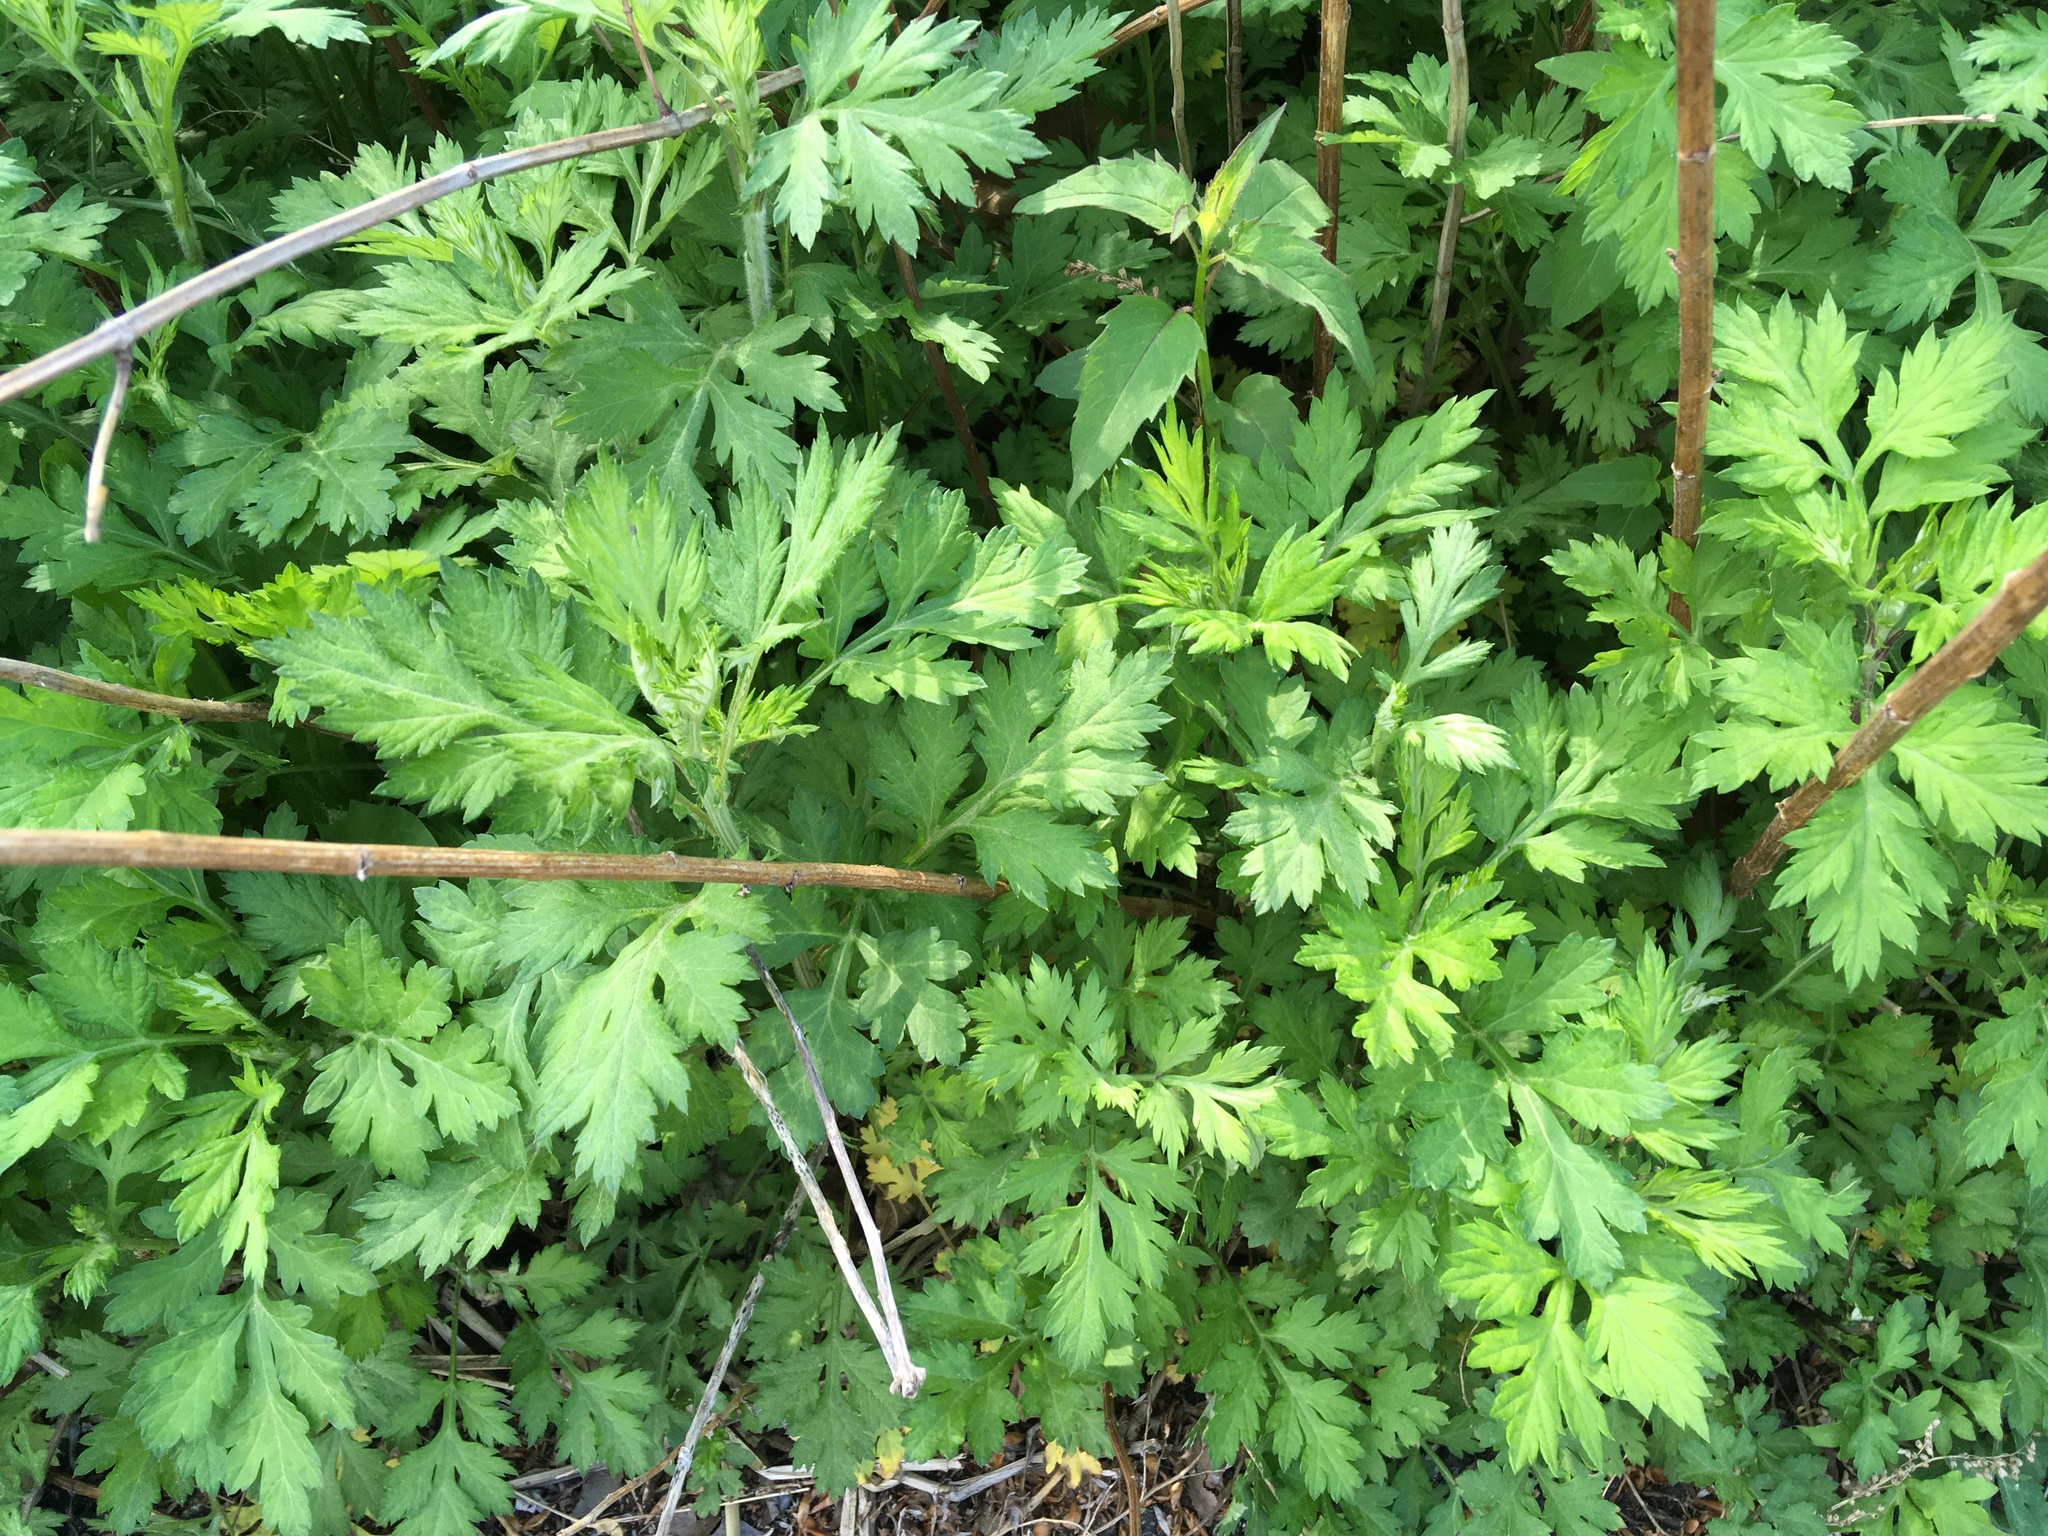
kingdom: Plantae
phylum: Tracheophyta
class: Magnoliopsida
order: Asterales
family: Asteraceae
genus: Artemisia
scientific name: Artemisia vulgaris
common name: Mugwort
